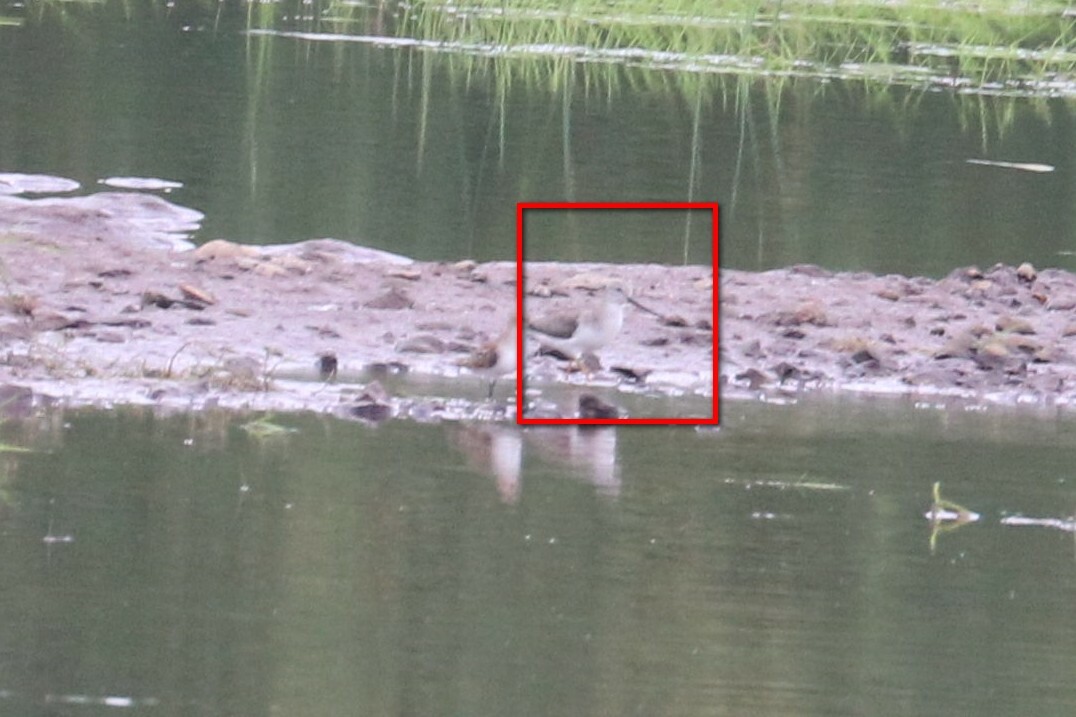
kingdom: Animalia
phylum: Chordata
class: Aves
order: Charadriiformes
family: Scolopacidae
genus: Xenus
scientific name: Xenus cinereus
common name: Terek sandpiper
